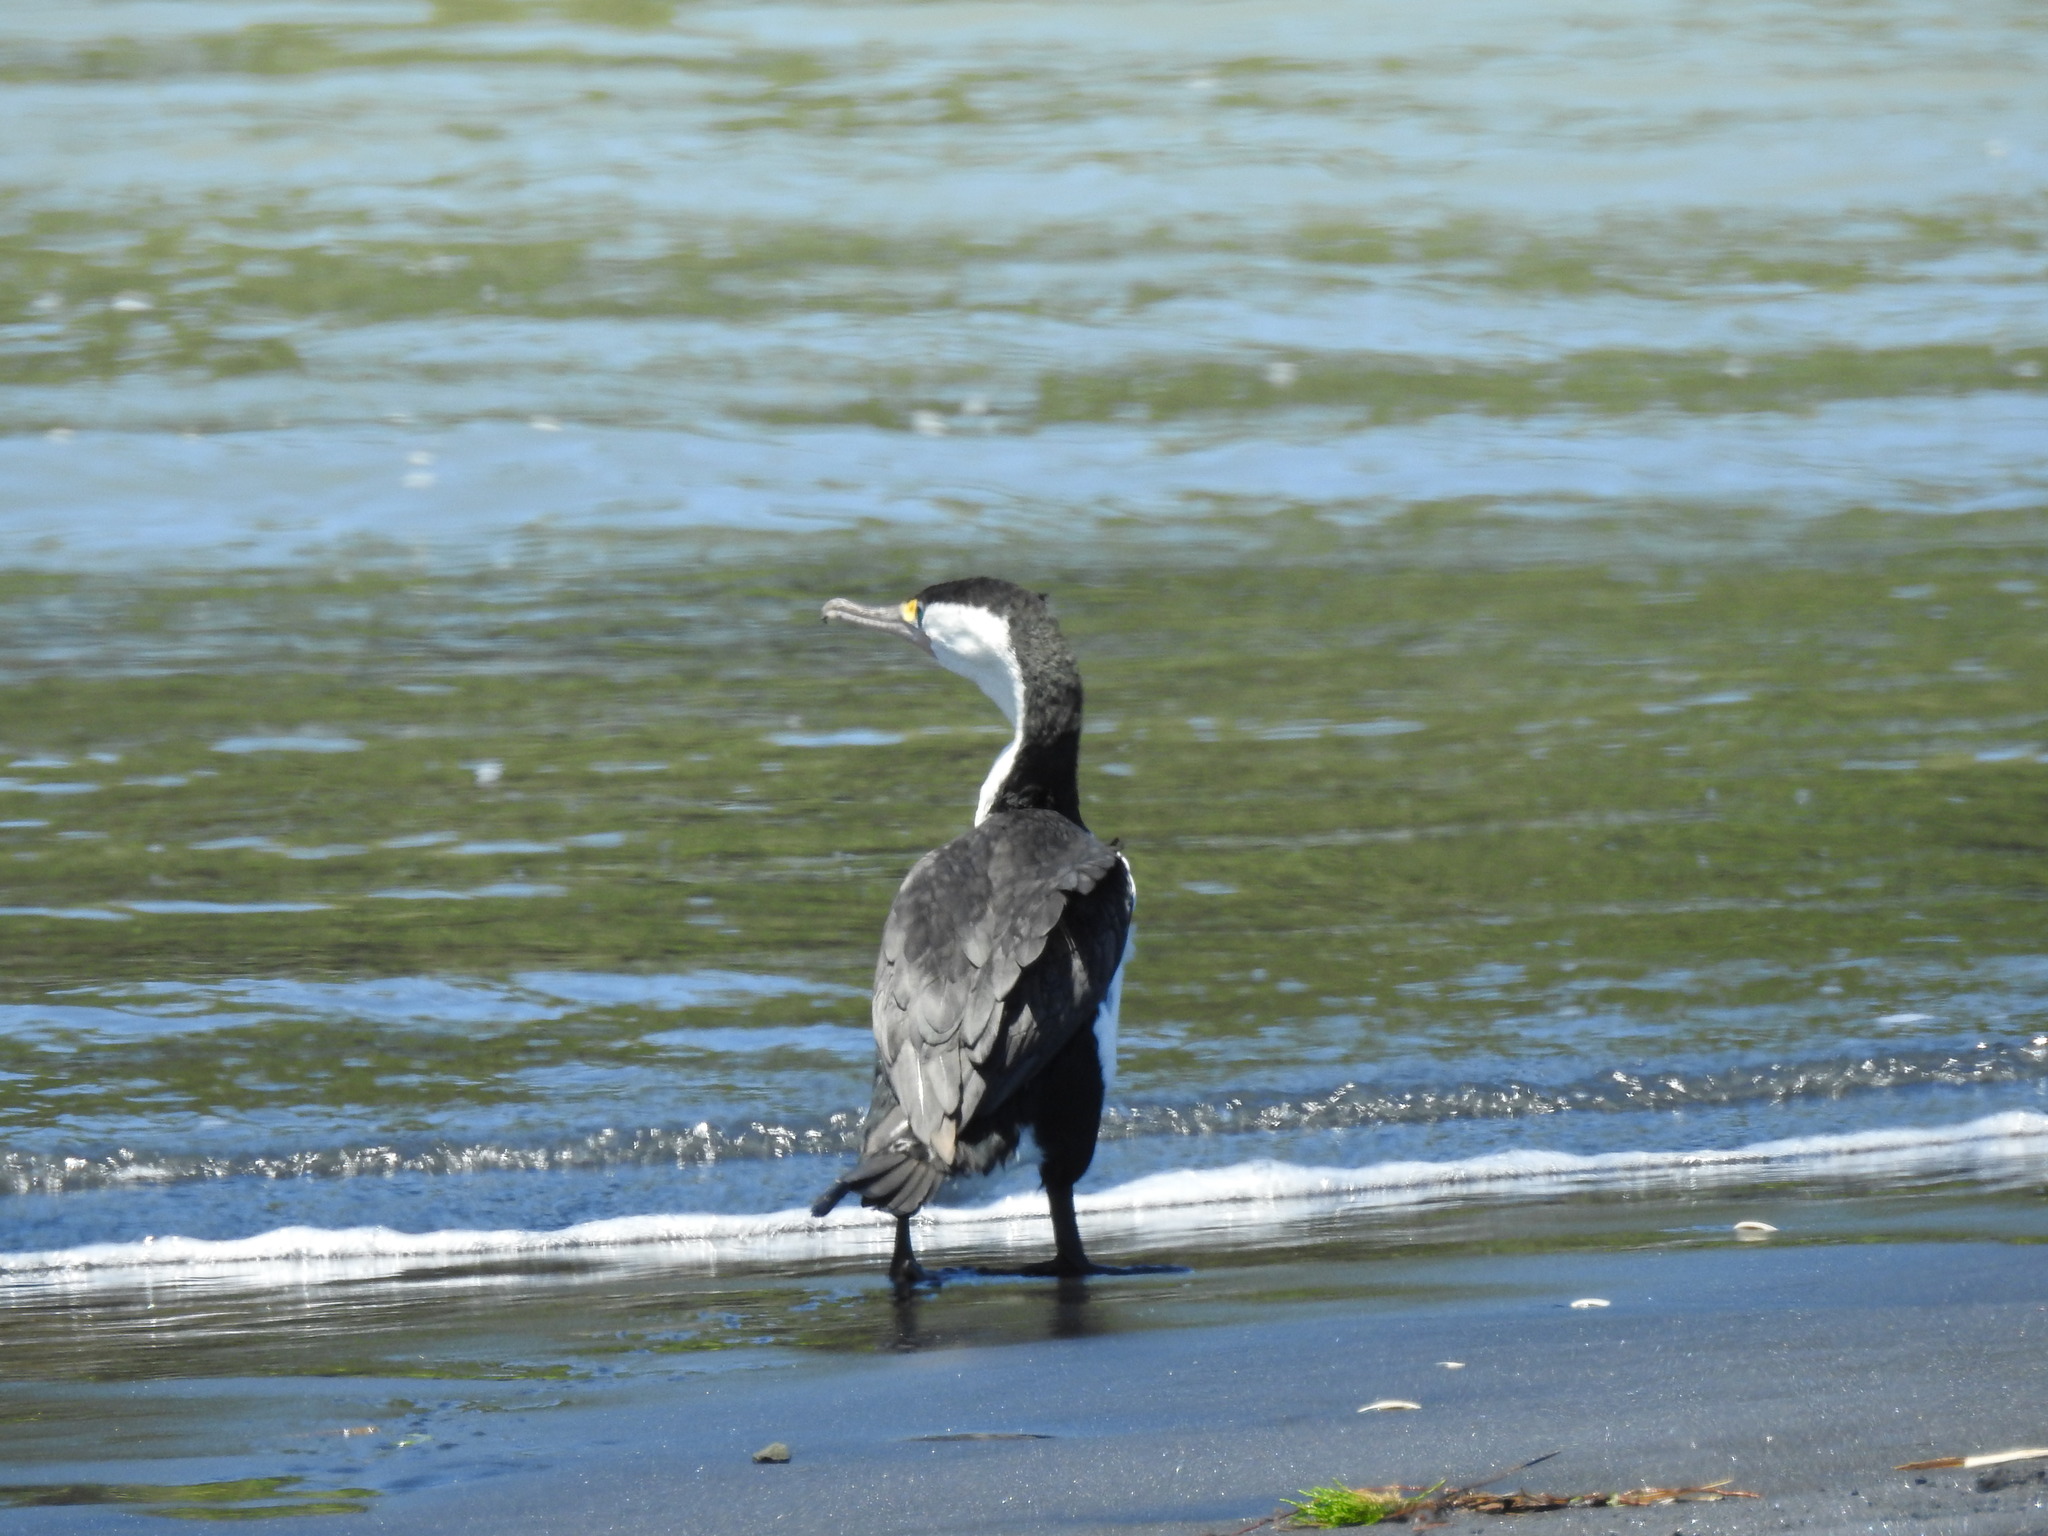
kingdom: Animalia
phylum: Chordata
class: Aves
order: Suliformes
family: Phalacrocoracidae
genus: Phalacrocorax
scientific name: Phalacrocorax varius
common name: Pied cormorant
